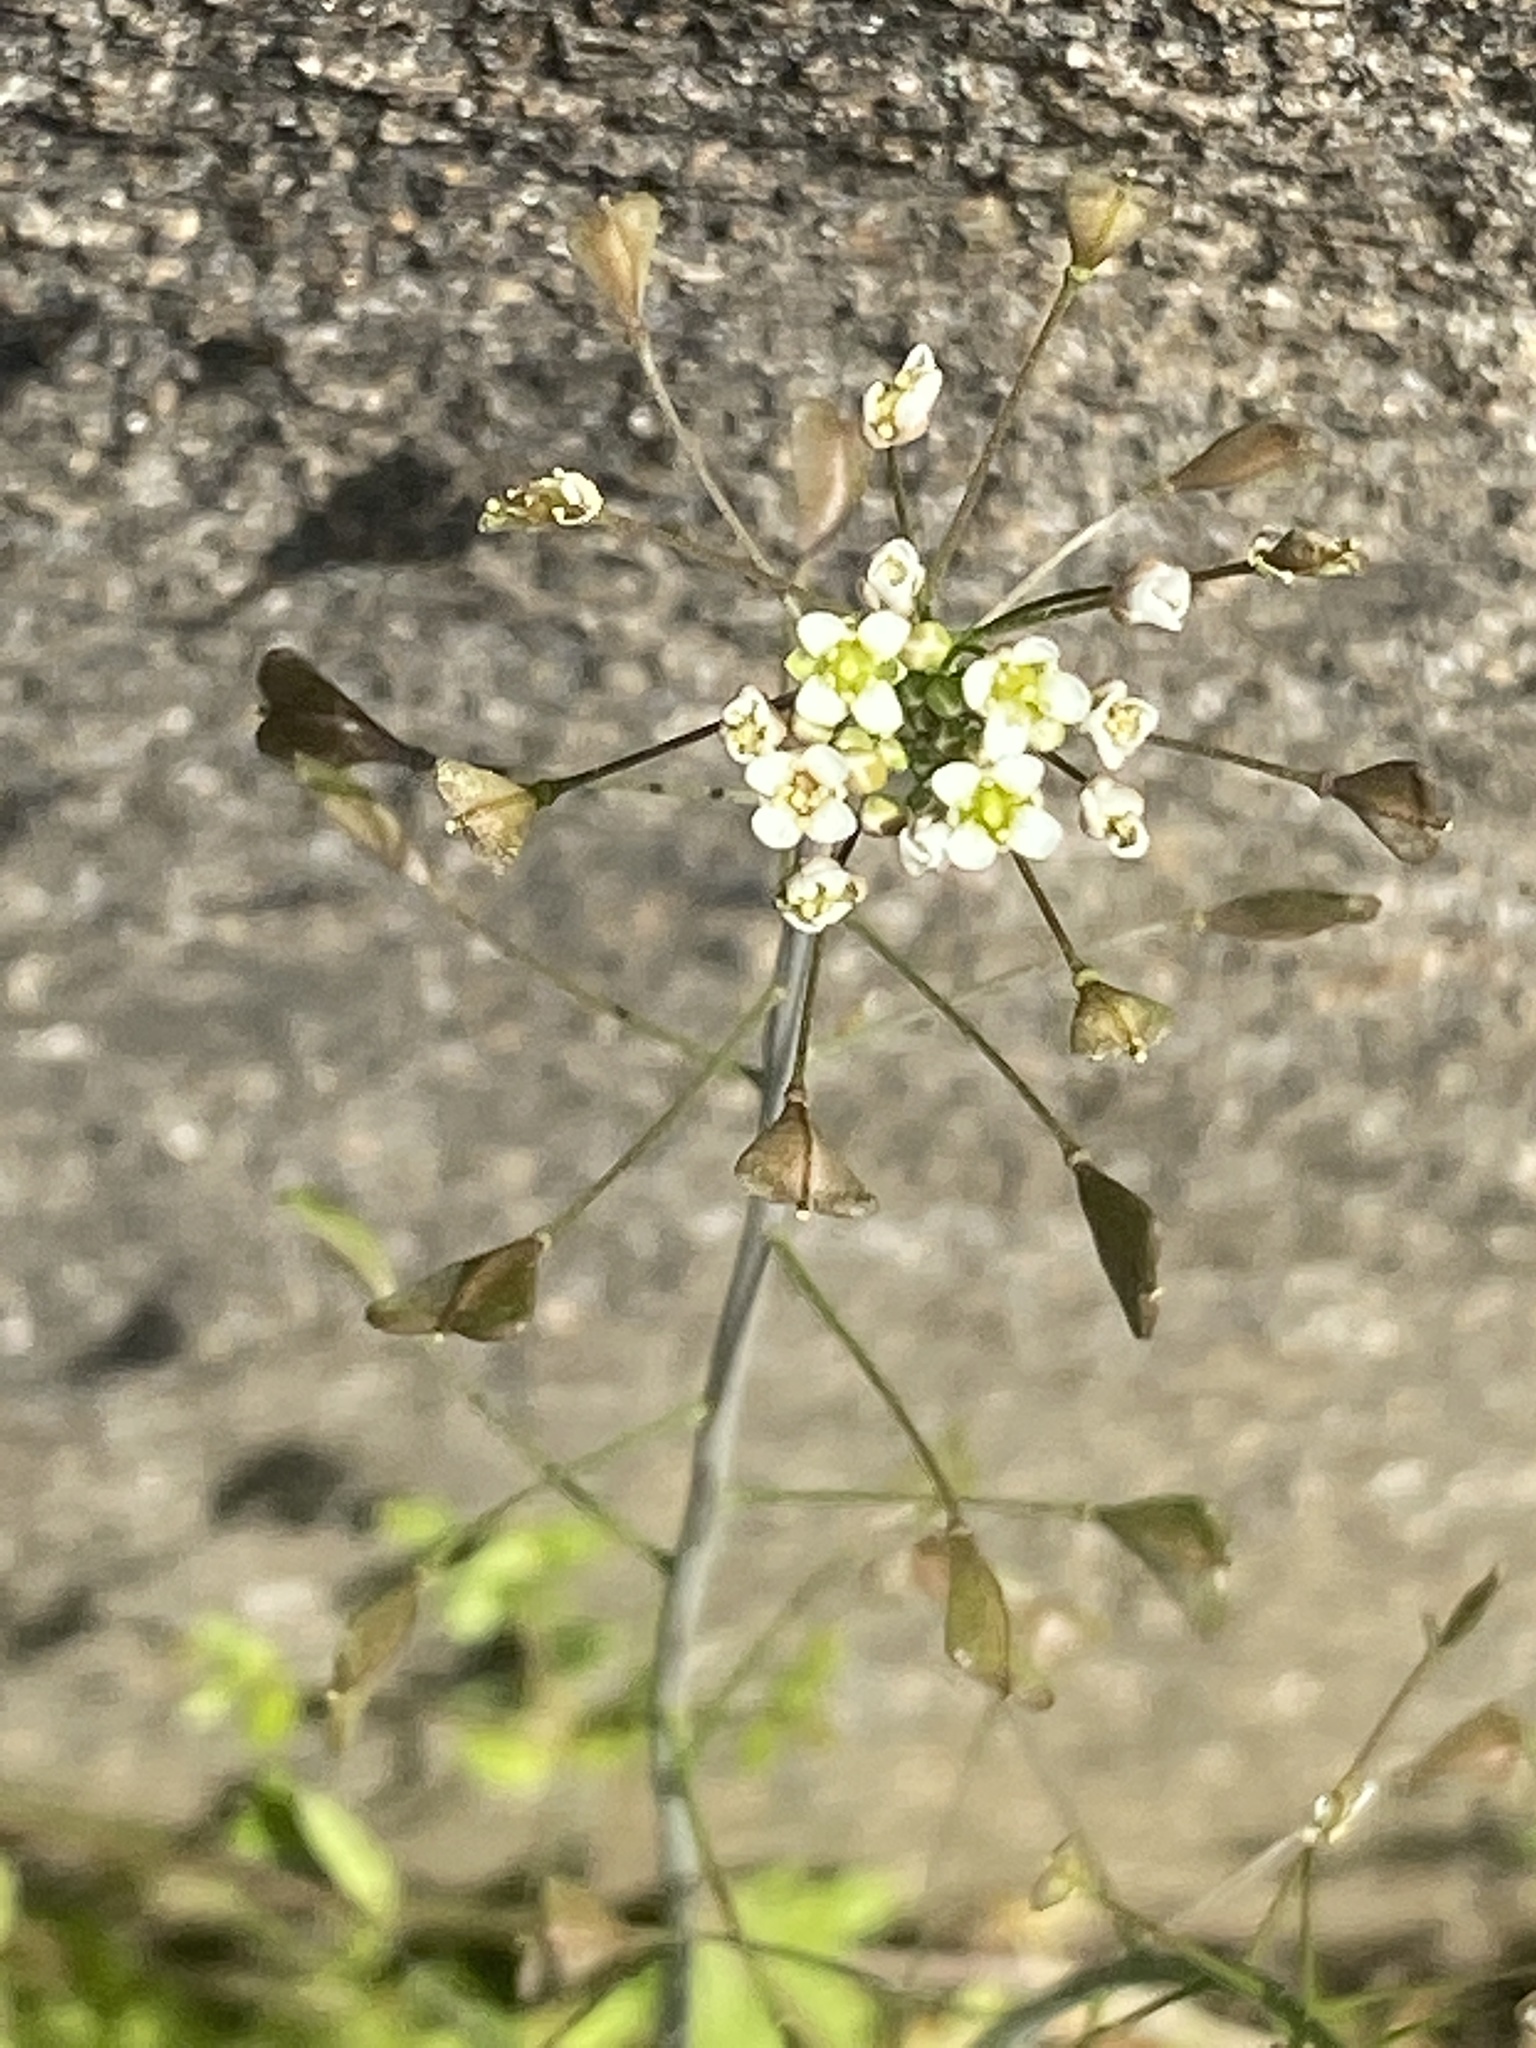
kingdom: Plantae
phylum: Tracheophyta
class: Magnoliopsida
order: Brassicales
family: Brassicaceae
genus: Capsella
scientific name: Capsella bursa-pastoris
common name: Shepherd's purse
